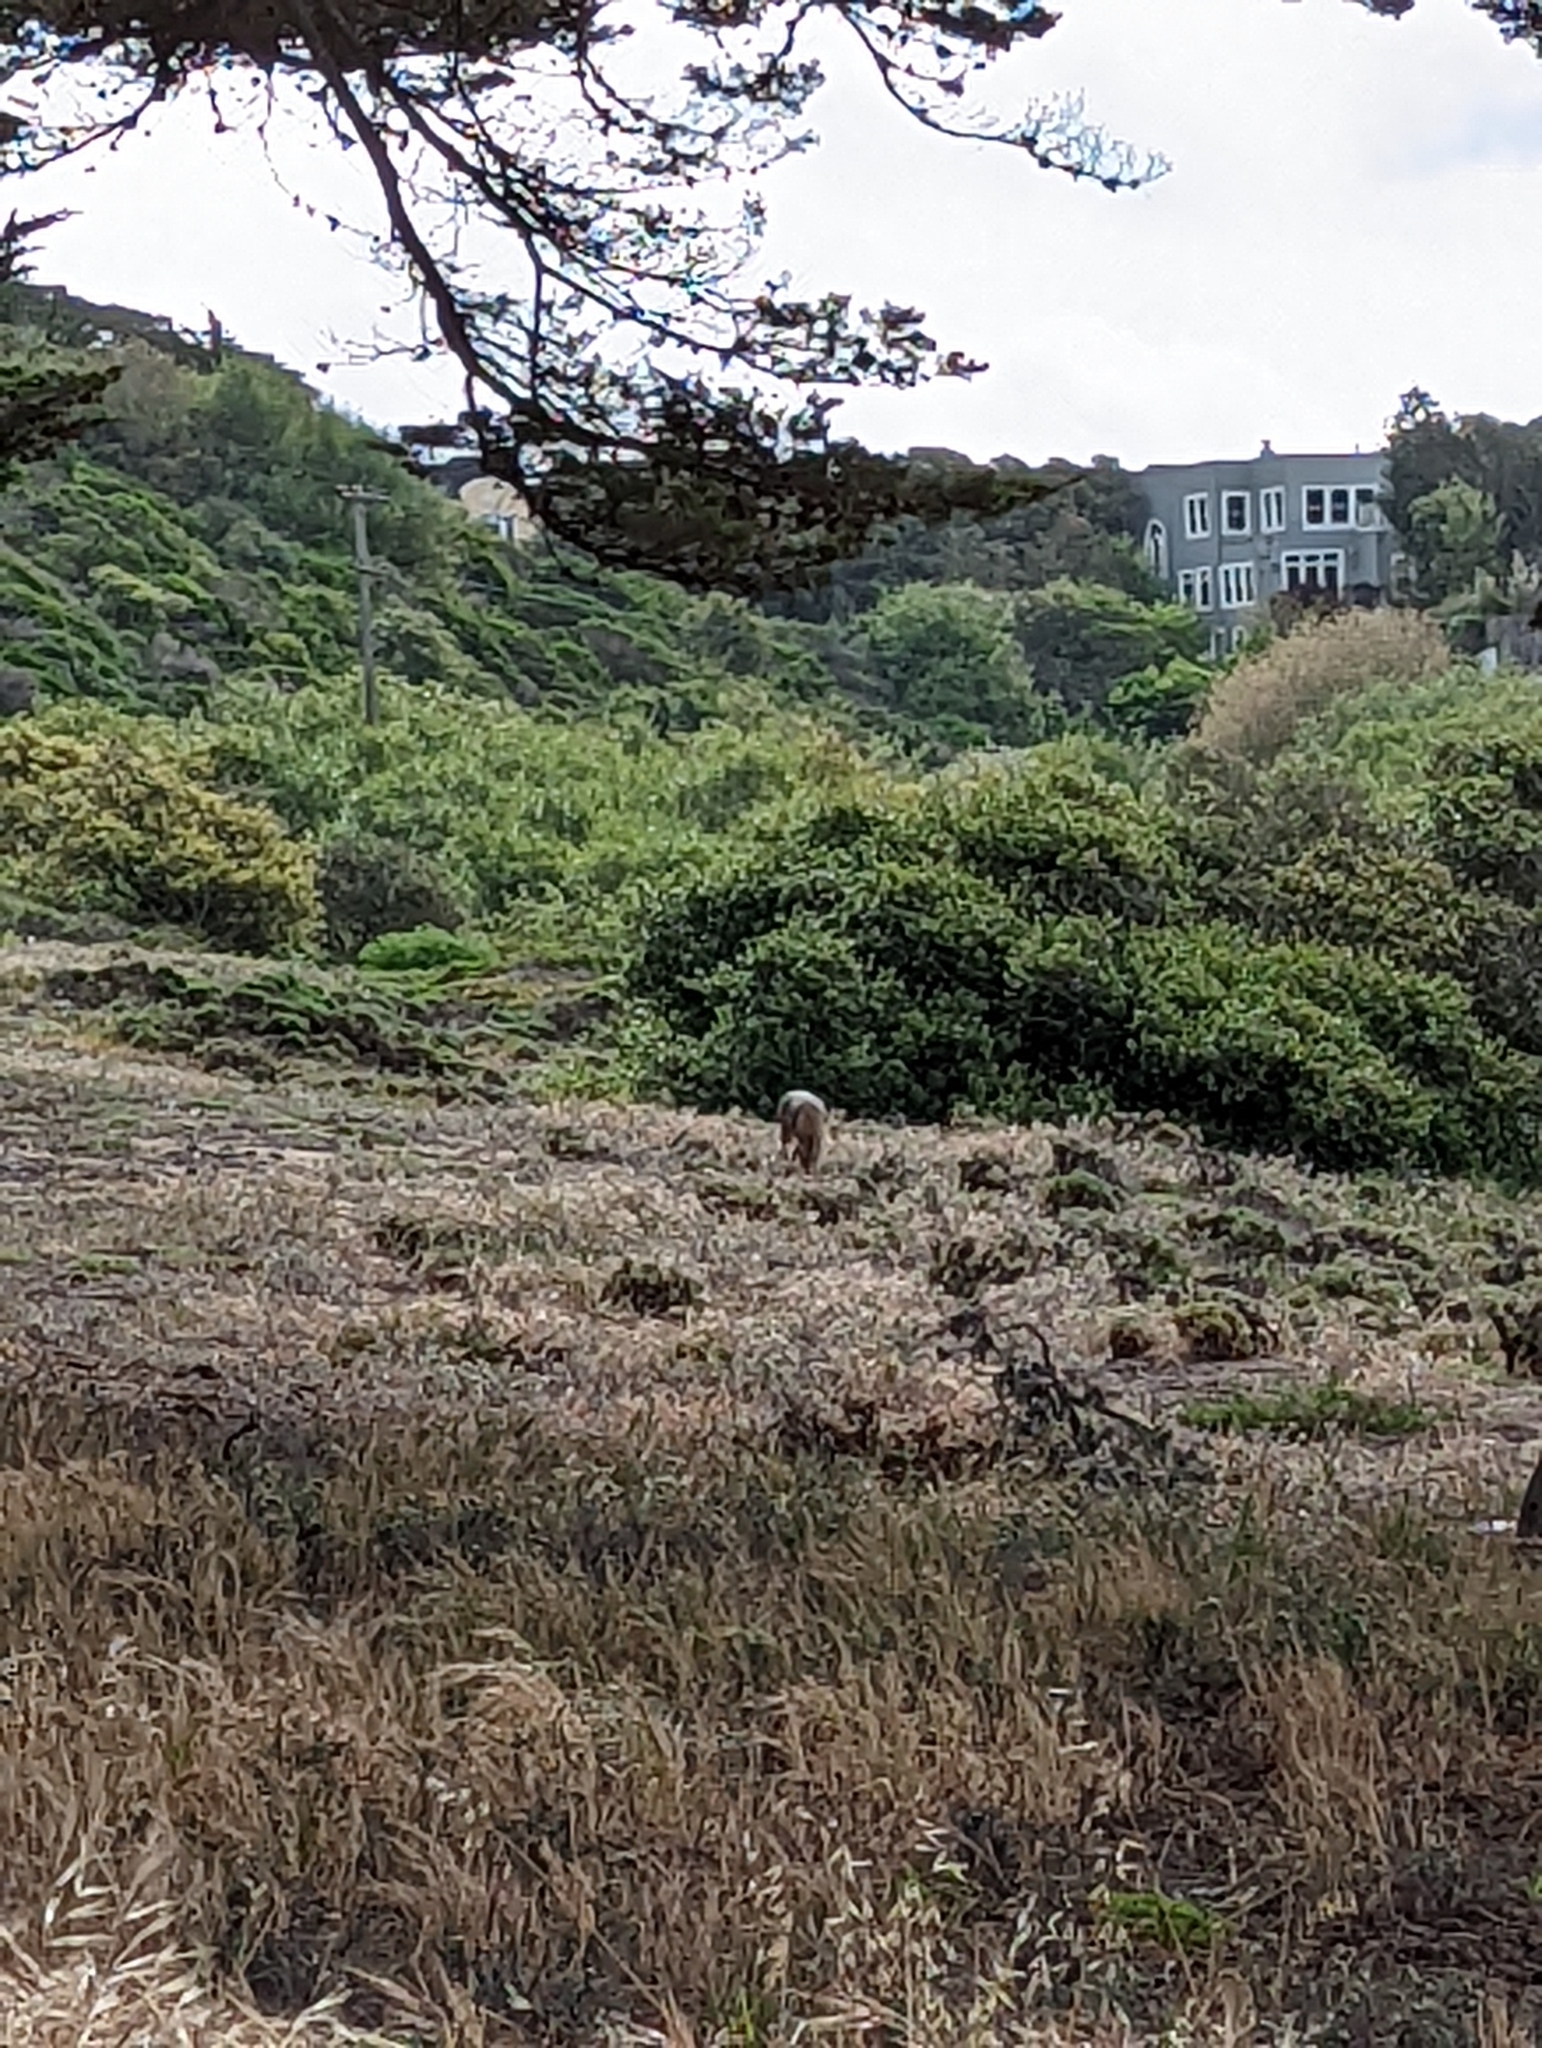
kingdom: Animalia
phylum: Chordata
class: Mammalia
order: Carnivora
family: Canidae
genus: Canis
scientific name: Canis latrans
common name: Coyote
